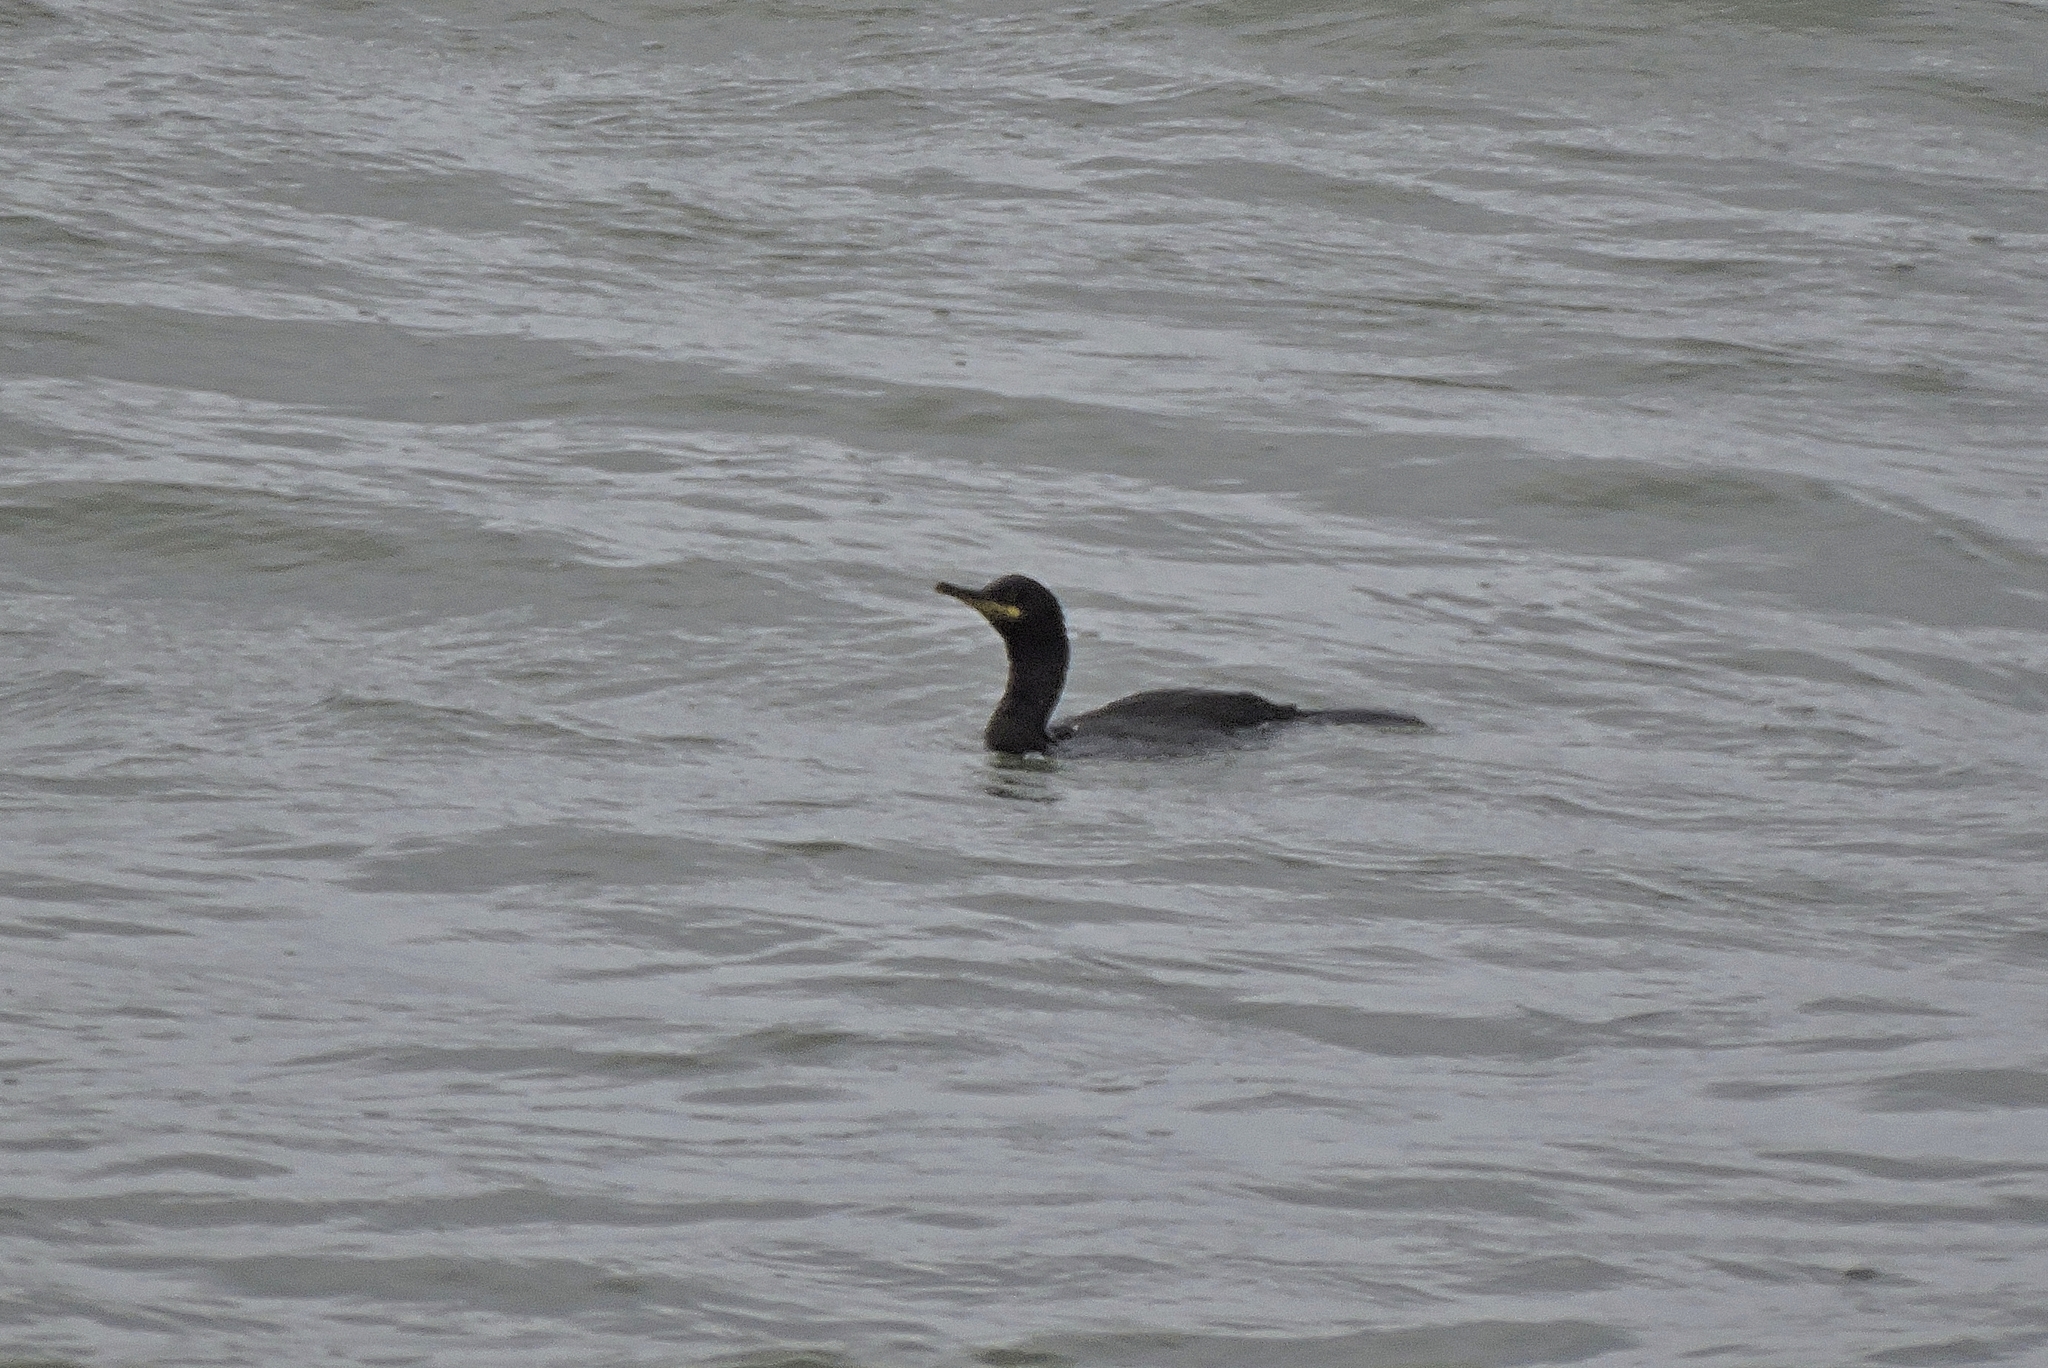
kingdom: Animalia
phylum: Chordata
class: Aves
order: Suliformes
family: Phalacrocoracidae
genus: Phalacrocorax
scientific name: Phalacrocorax aristotelis
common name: European shag
